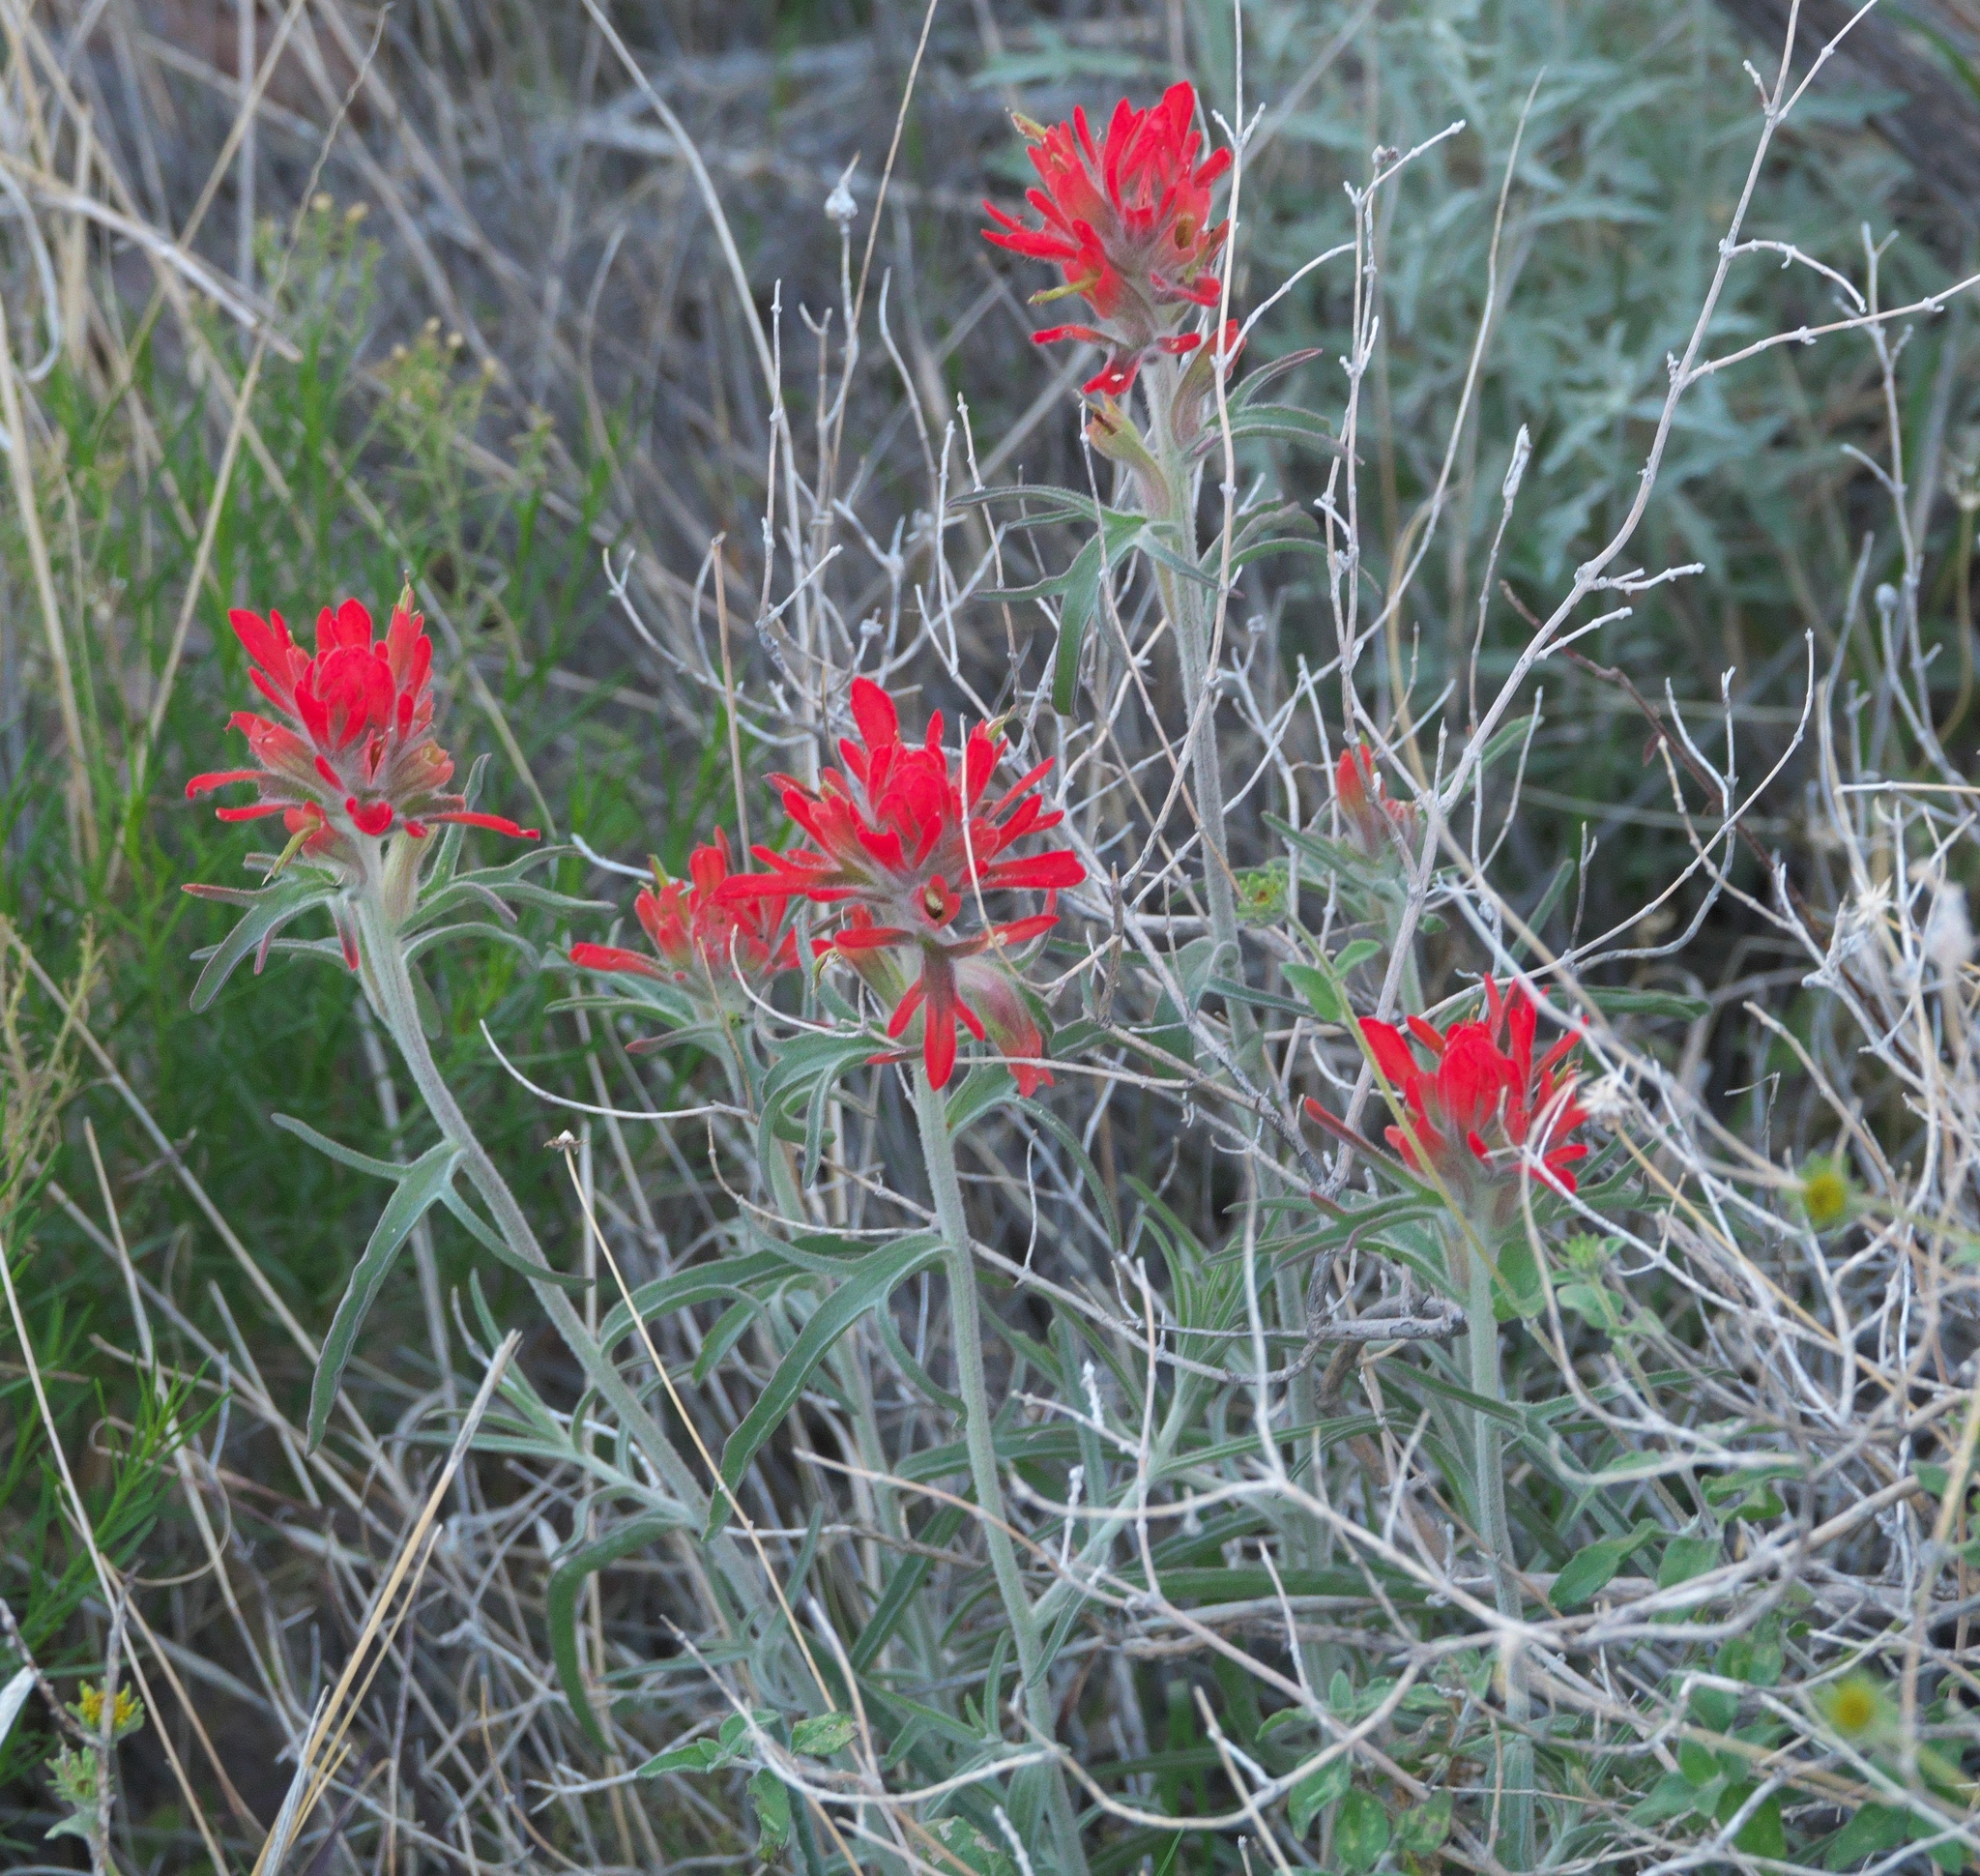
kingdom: Plantae
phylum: Tracheophyta
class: Magnoliopsida
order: Lamiales
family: Orobanchaceae
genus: Castilleja
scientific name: Castilleja lanata
